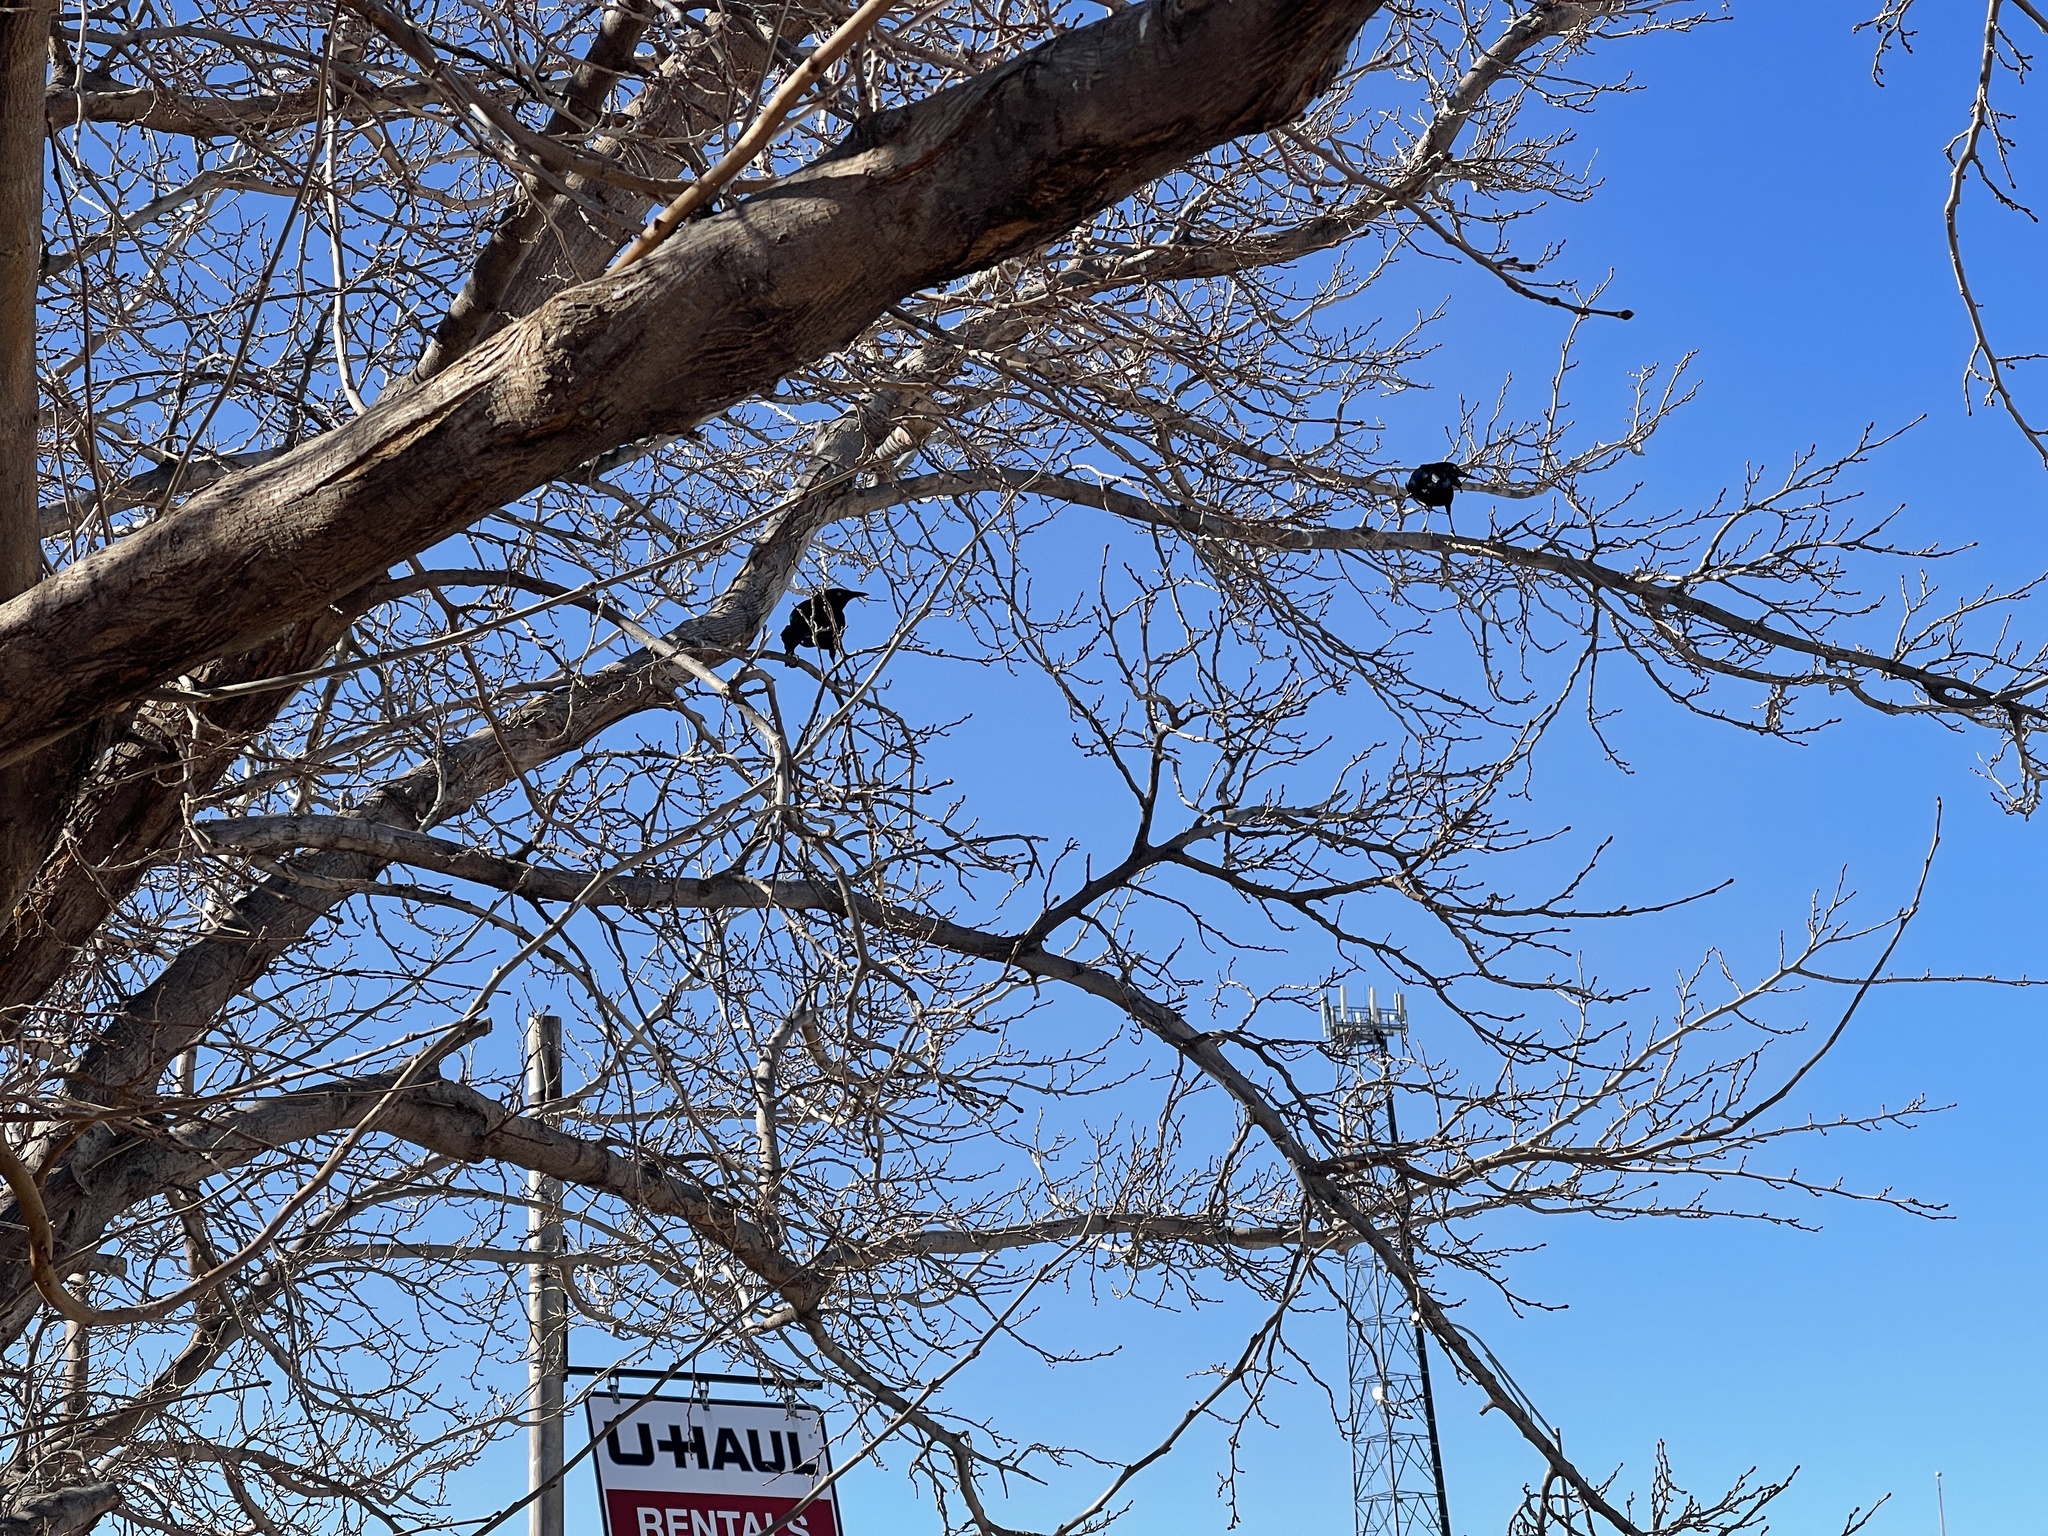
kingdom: Animalia
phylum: Chordata
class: Aves
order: Passeriformes
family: Icteridae
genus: Quiscalus
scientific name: Quiscalus mexicanus
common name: Great-tailed grackle
